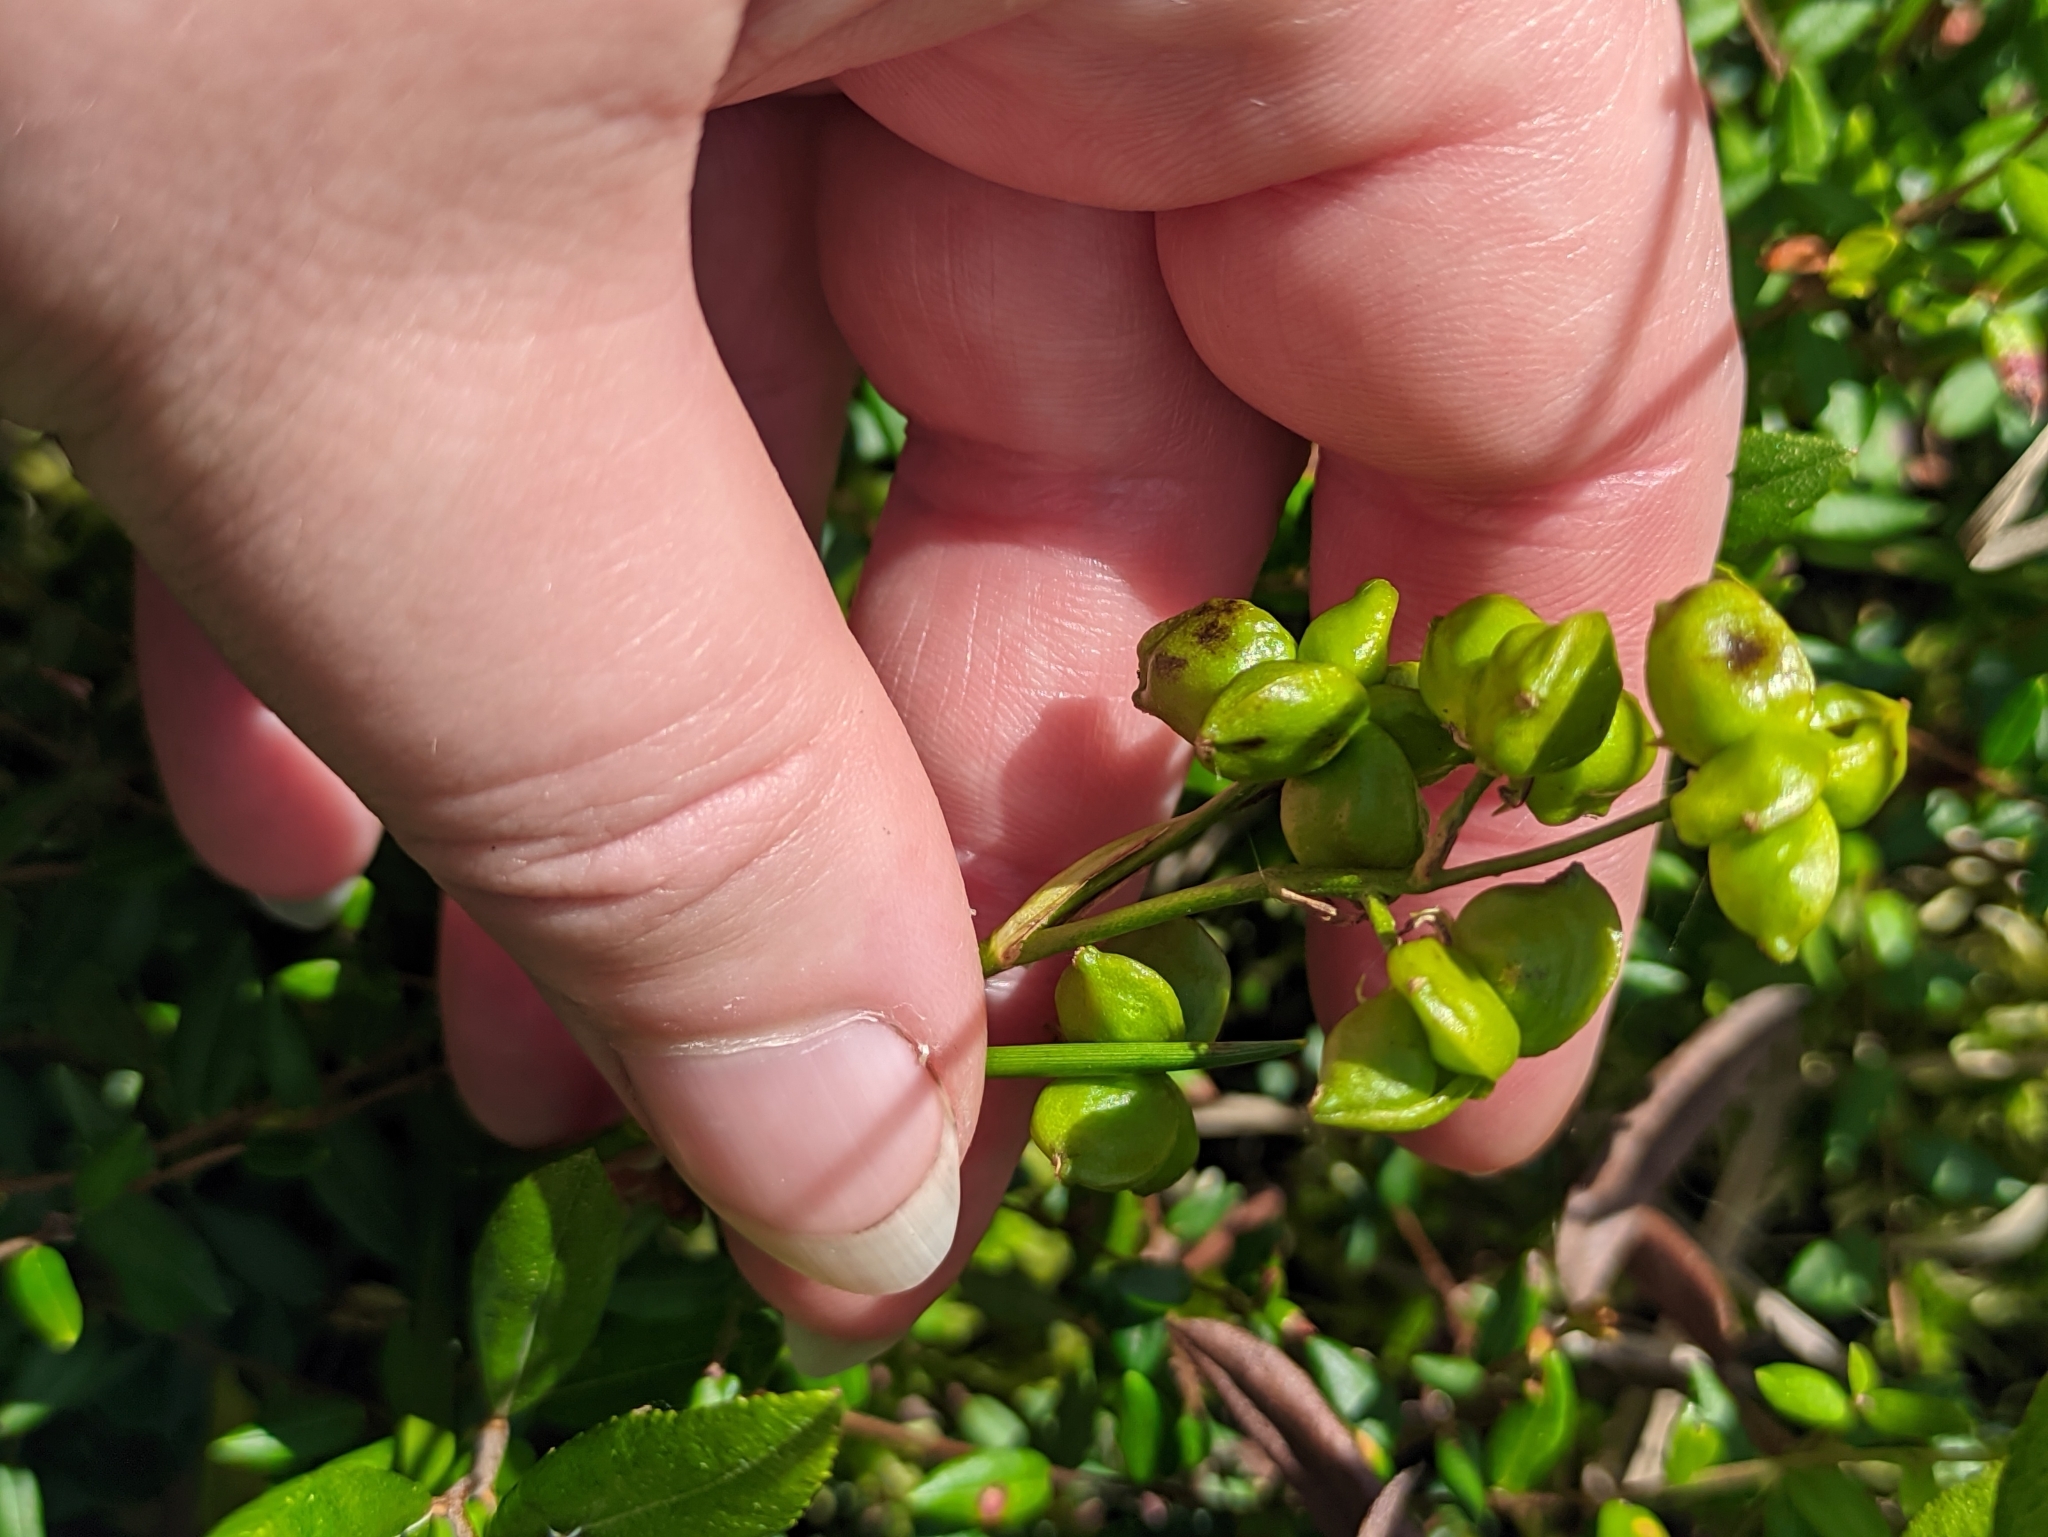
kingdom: Plantae
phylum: Tracheophyta
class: Liliopsida
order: Alismatales
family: Scheuchzeriaceae
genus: Scheuchzeria
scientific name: Scheuchzeria palustris
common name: Rannoch-rush
